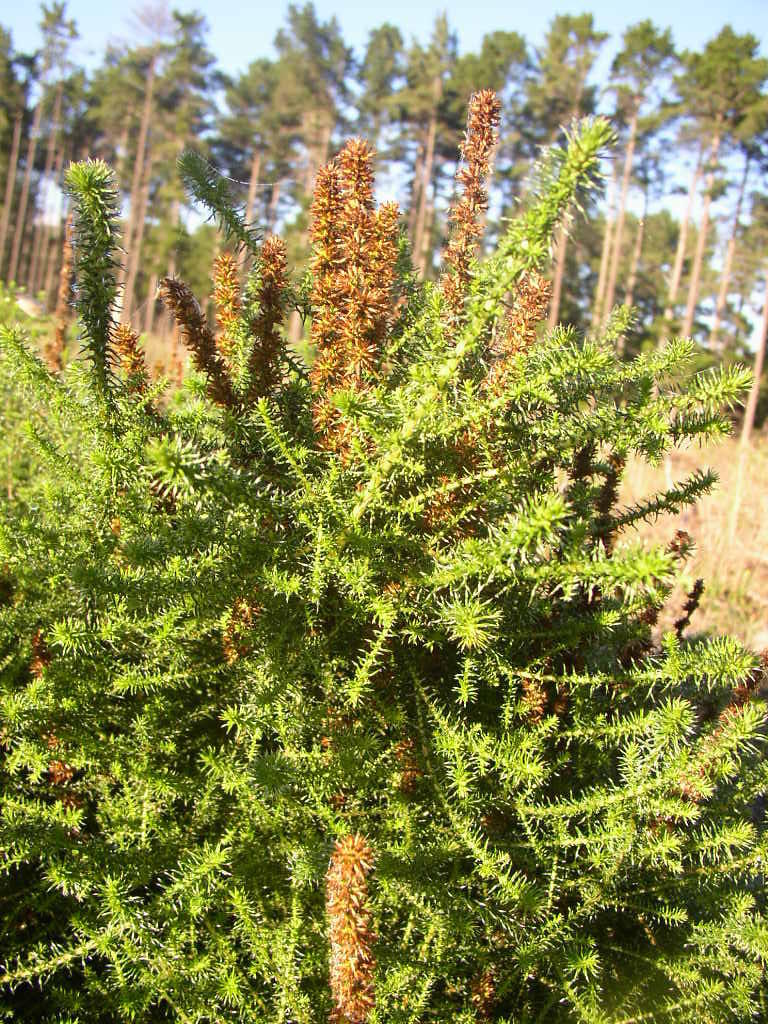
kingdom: Plantae
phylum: Tracheophyta
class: Magnoliopsida
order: Asterales
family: Asteraceae
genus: Seriphium
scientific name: Seriphium cinereum
